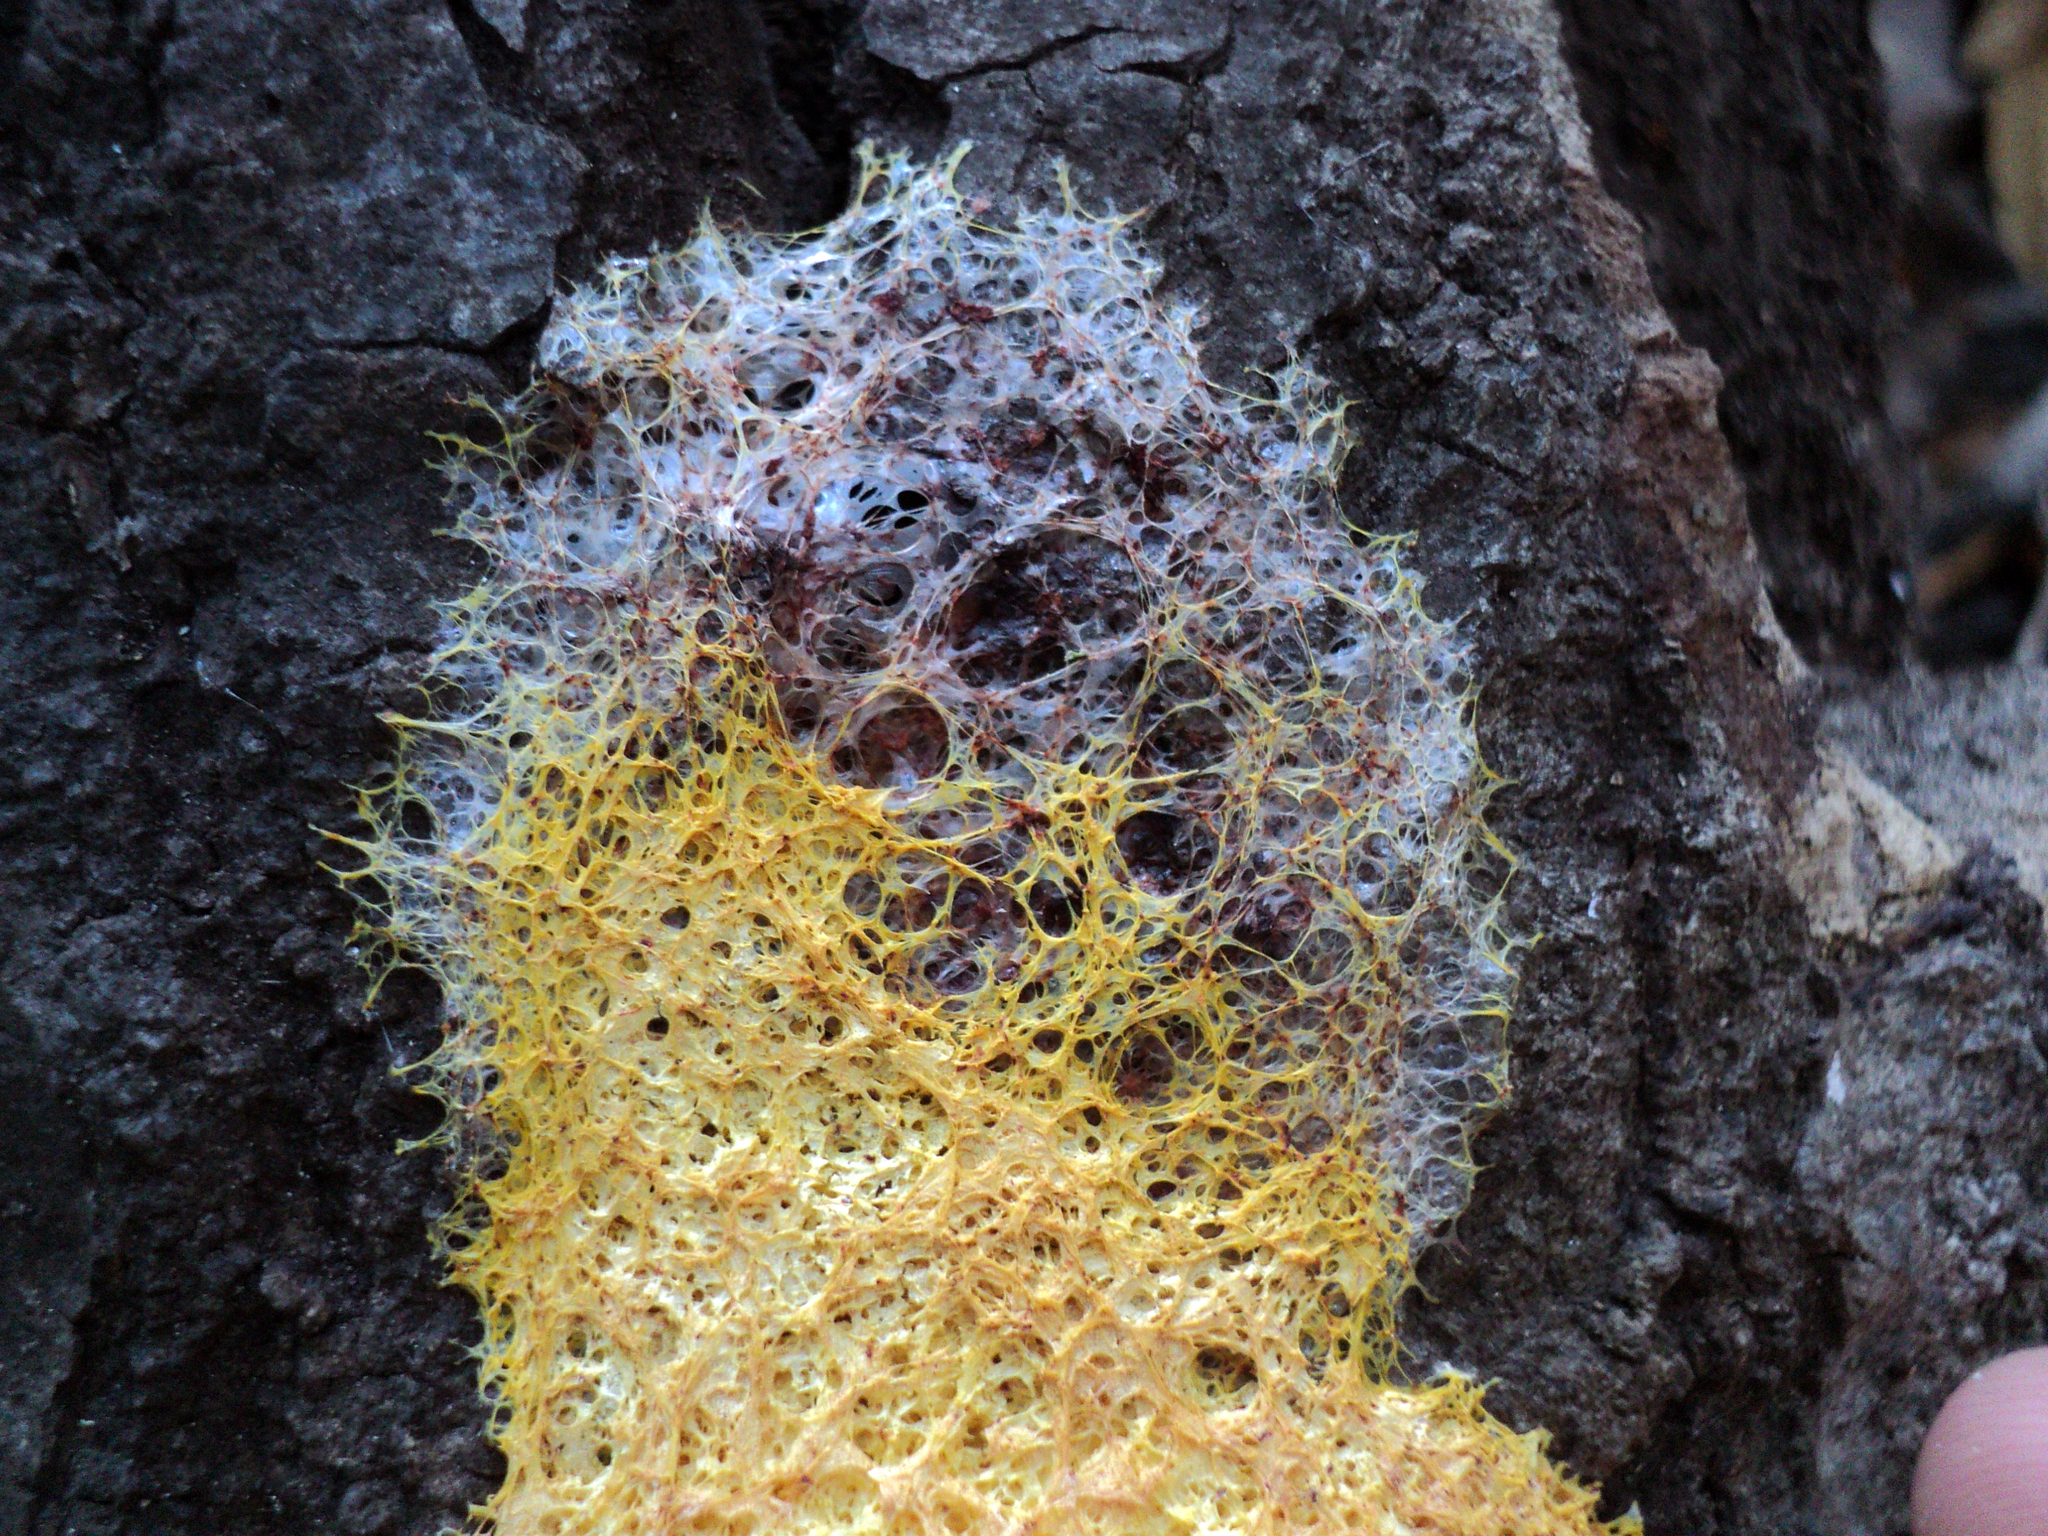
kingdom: Protozoa
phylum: Mycetozoa
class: Myxomycetes
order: Physarales
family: Physaraceae
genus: Fuligo
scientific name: Fuligo septica
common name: Dog vomit slime mold
